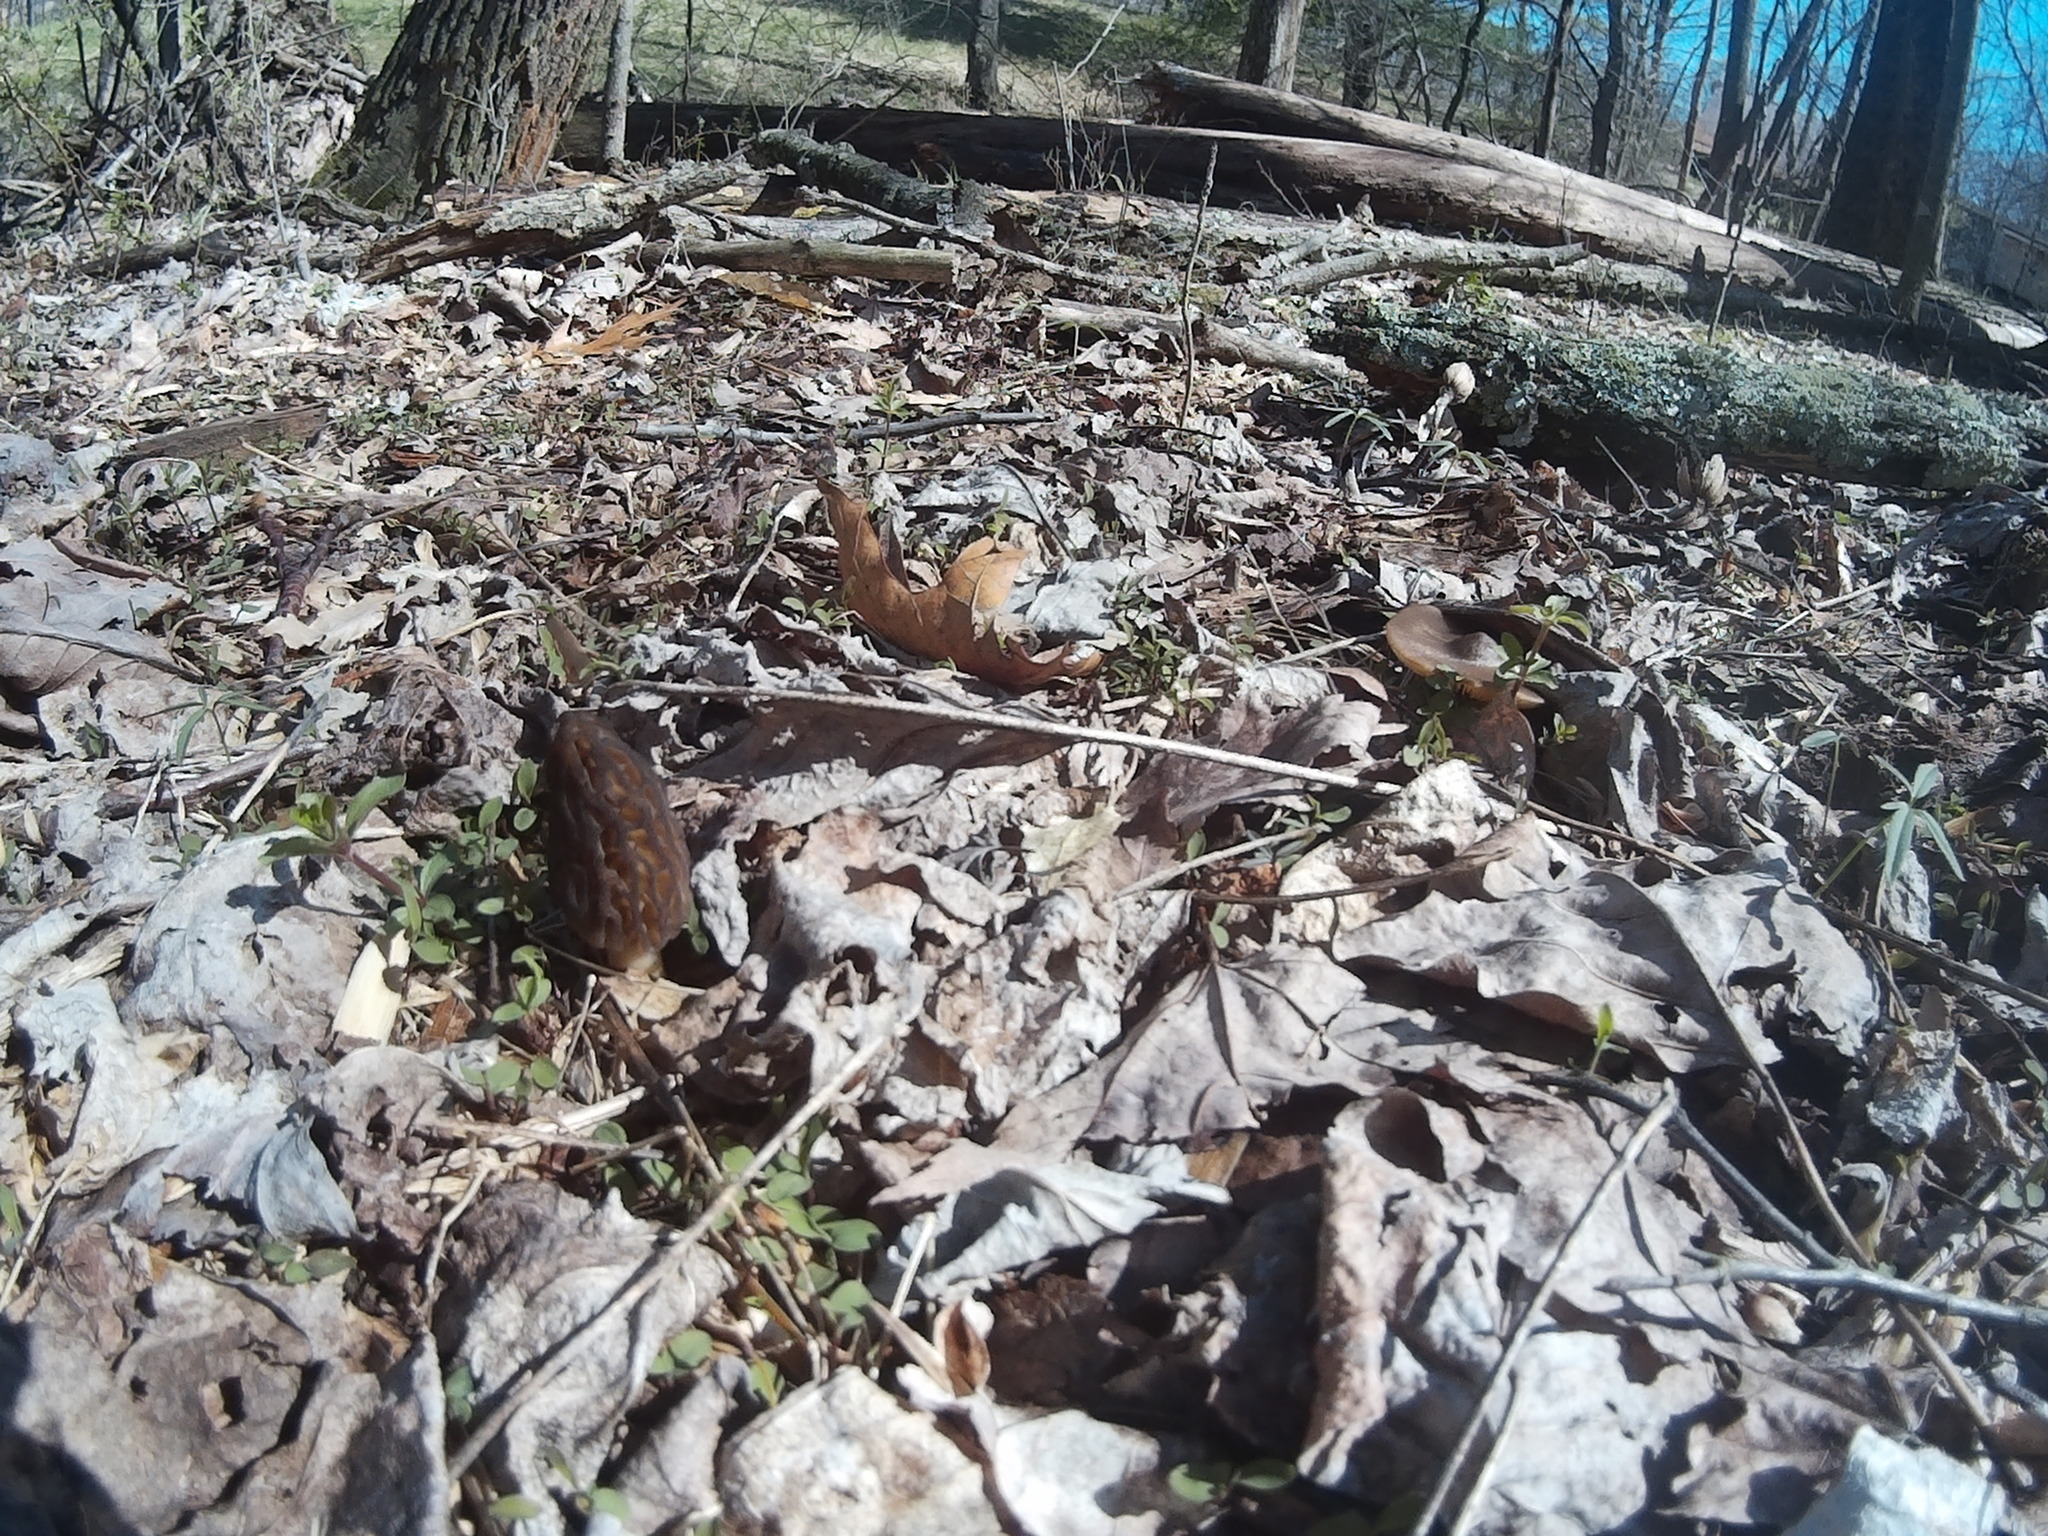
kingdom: Fungi
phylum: Ascomycota
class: Pezizomycetes
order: Pezizales
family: Morchellaceae
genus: Morchella
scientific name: Morchella angusticeps
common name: Black morel
